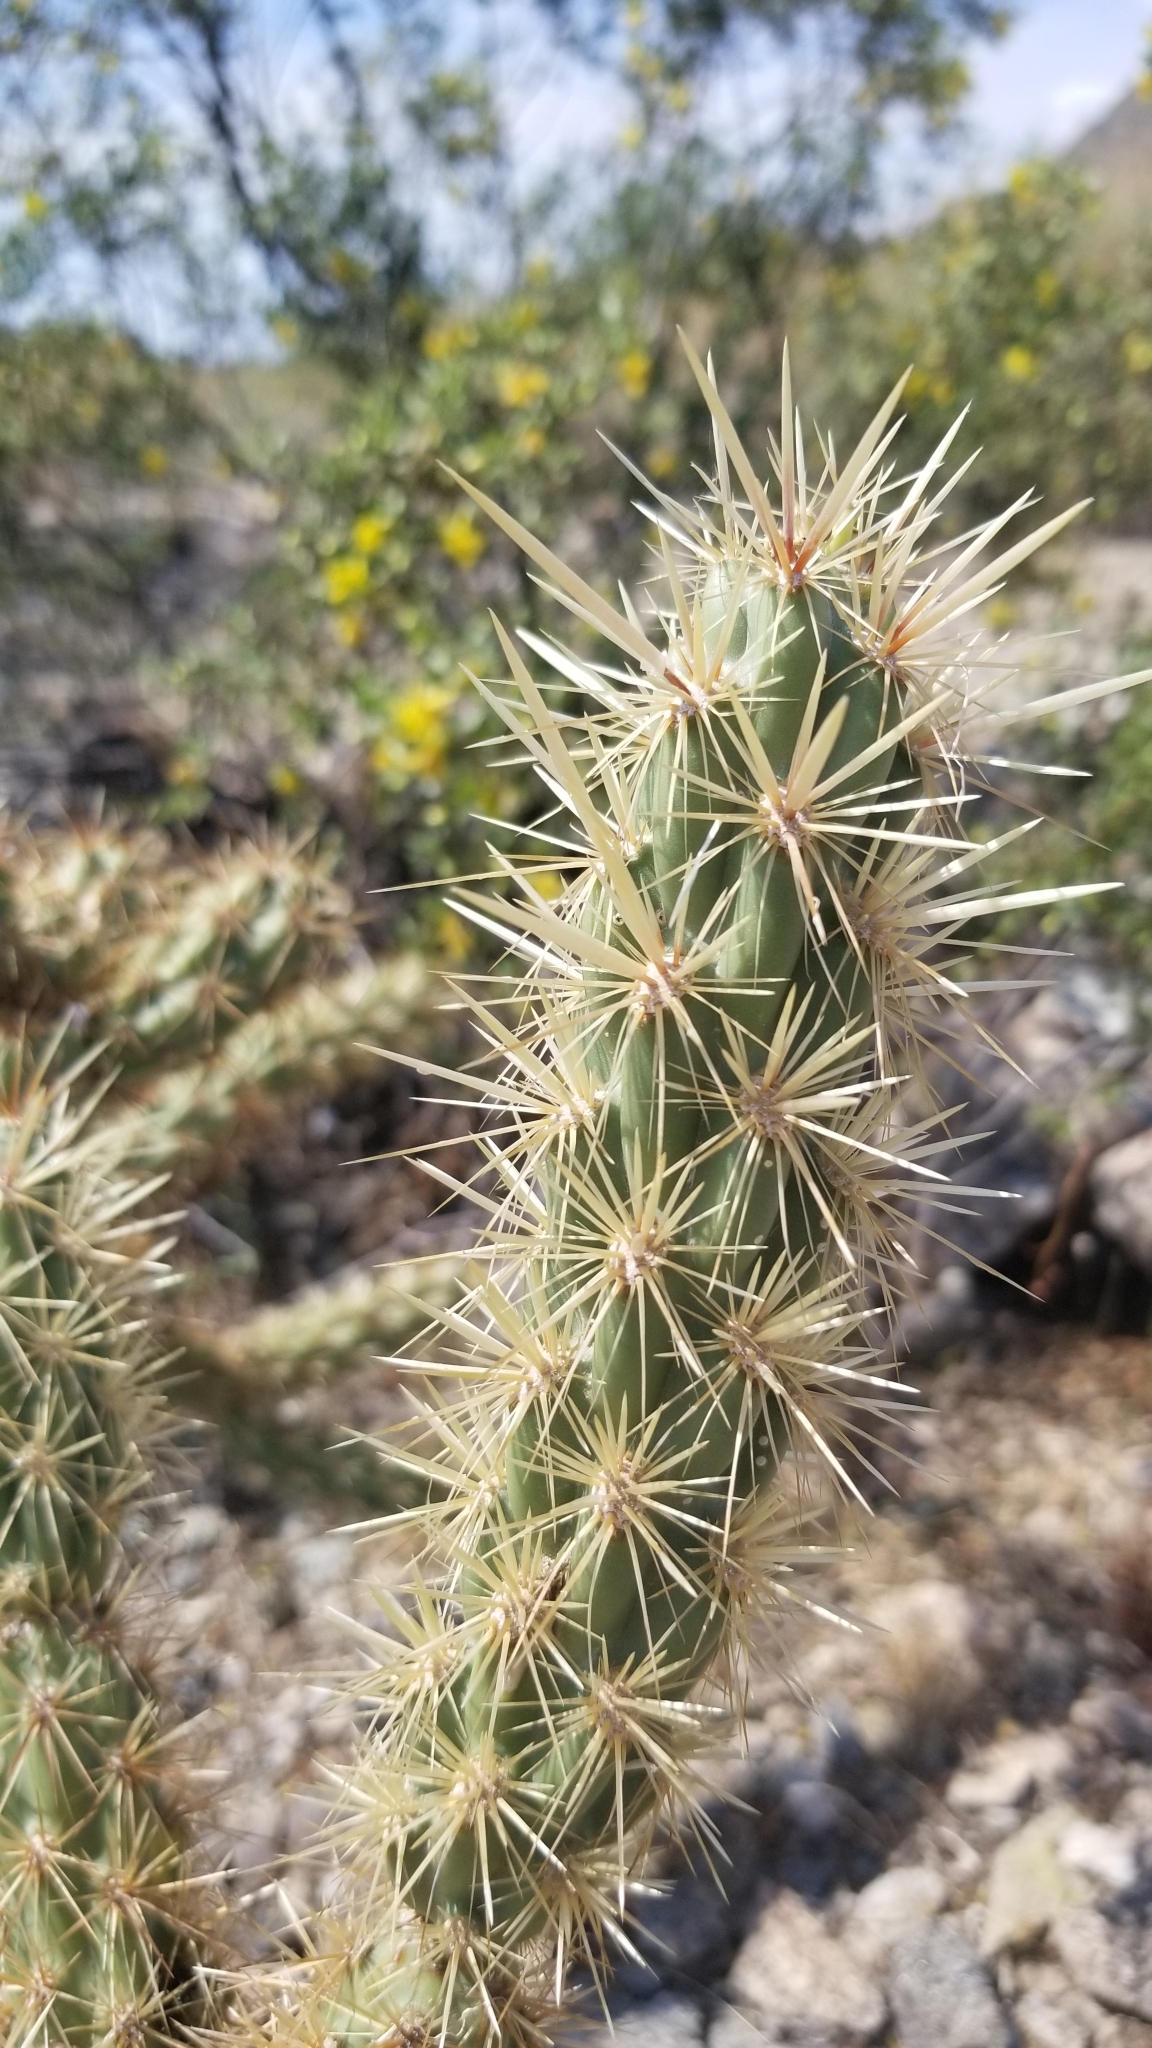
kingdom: Plantae
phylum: Tracheophyta
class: Magnoliopsida
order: Caryophyllales
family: Cactaceae
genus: Cylindropuntia
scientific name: Cylindropuntia acanthocarpa
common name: Buckhorn cholla
